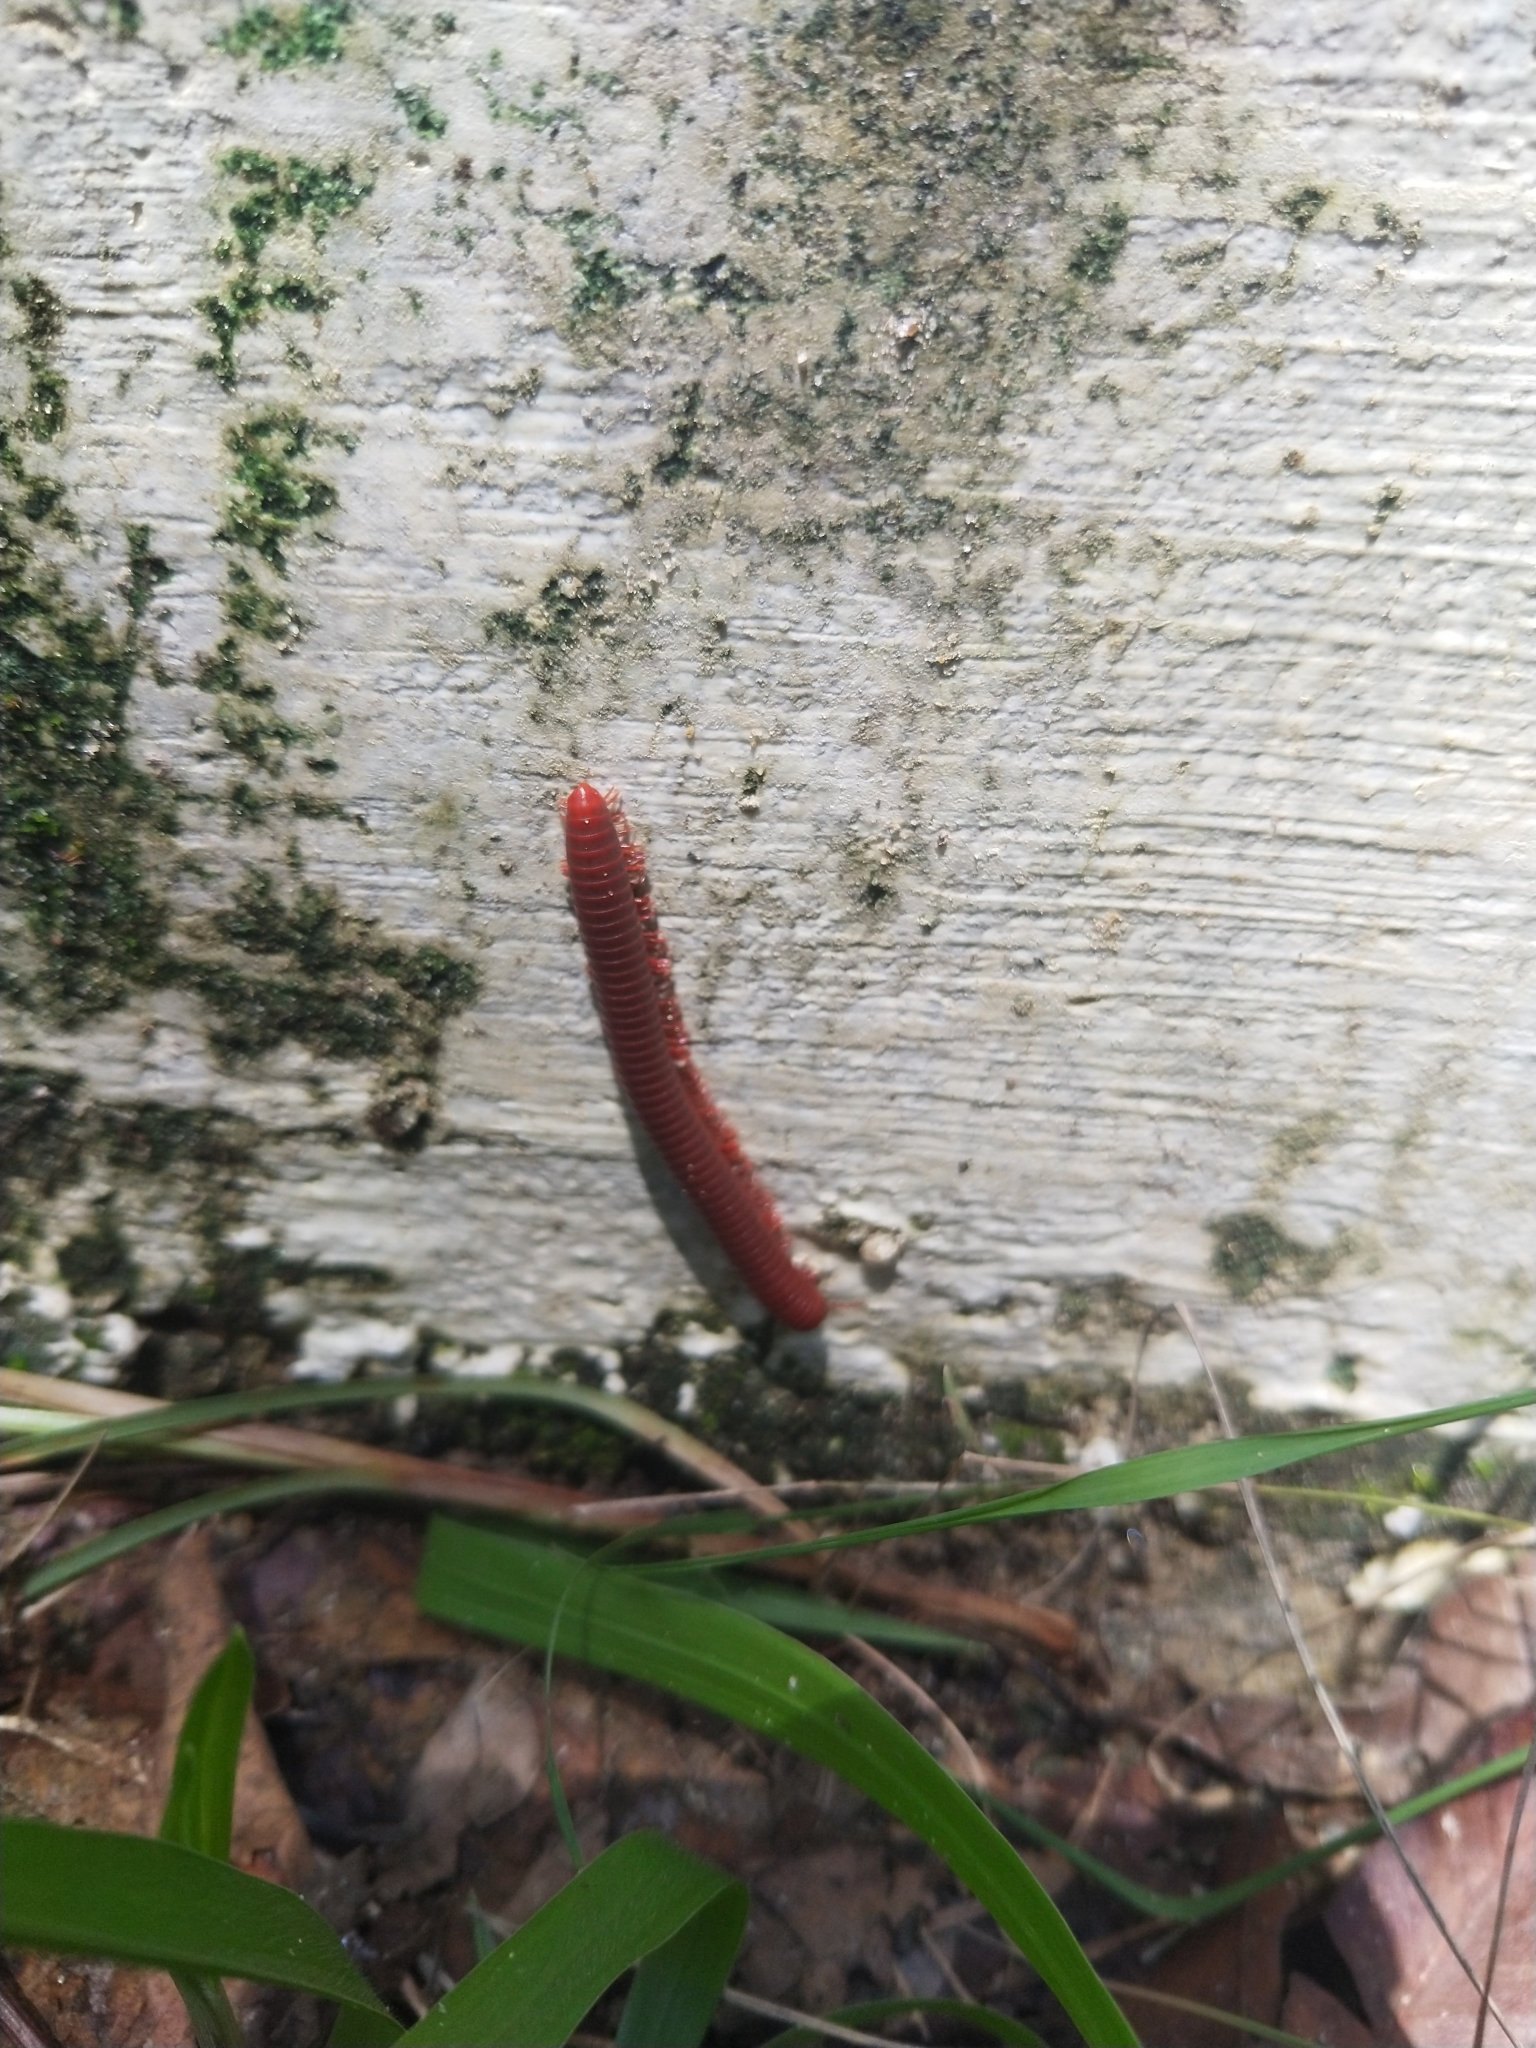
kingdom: Animalia
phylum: Arthropoda
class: Diplopoda
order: Spirobolida
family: Pachybolidae
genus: Trigoniulus
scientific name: Trigoniulus corallinus
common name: Millipede
